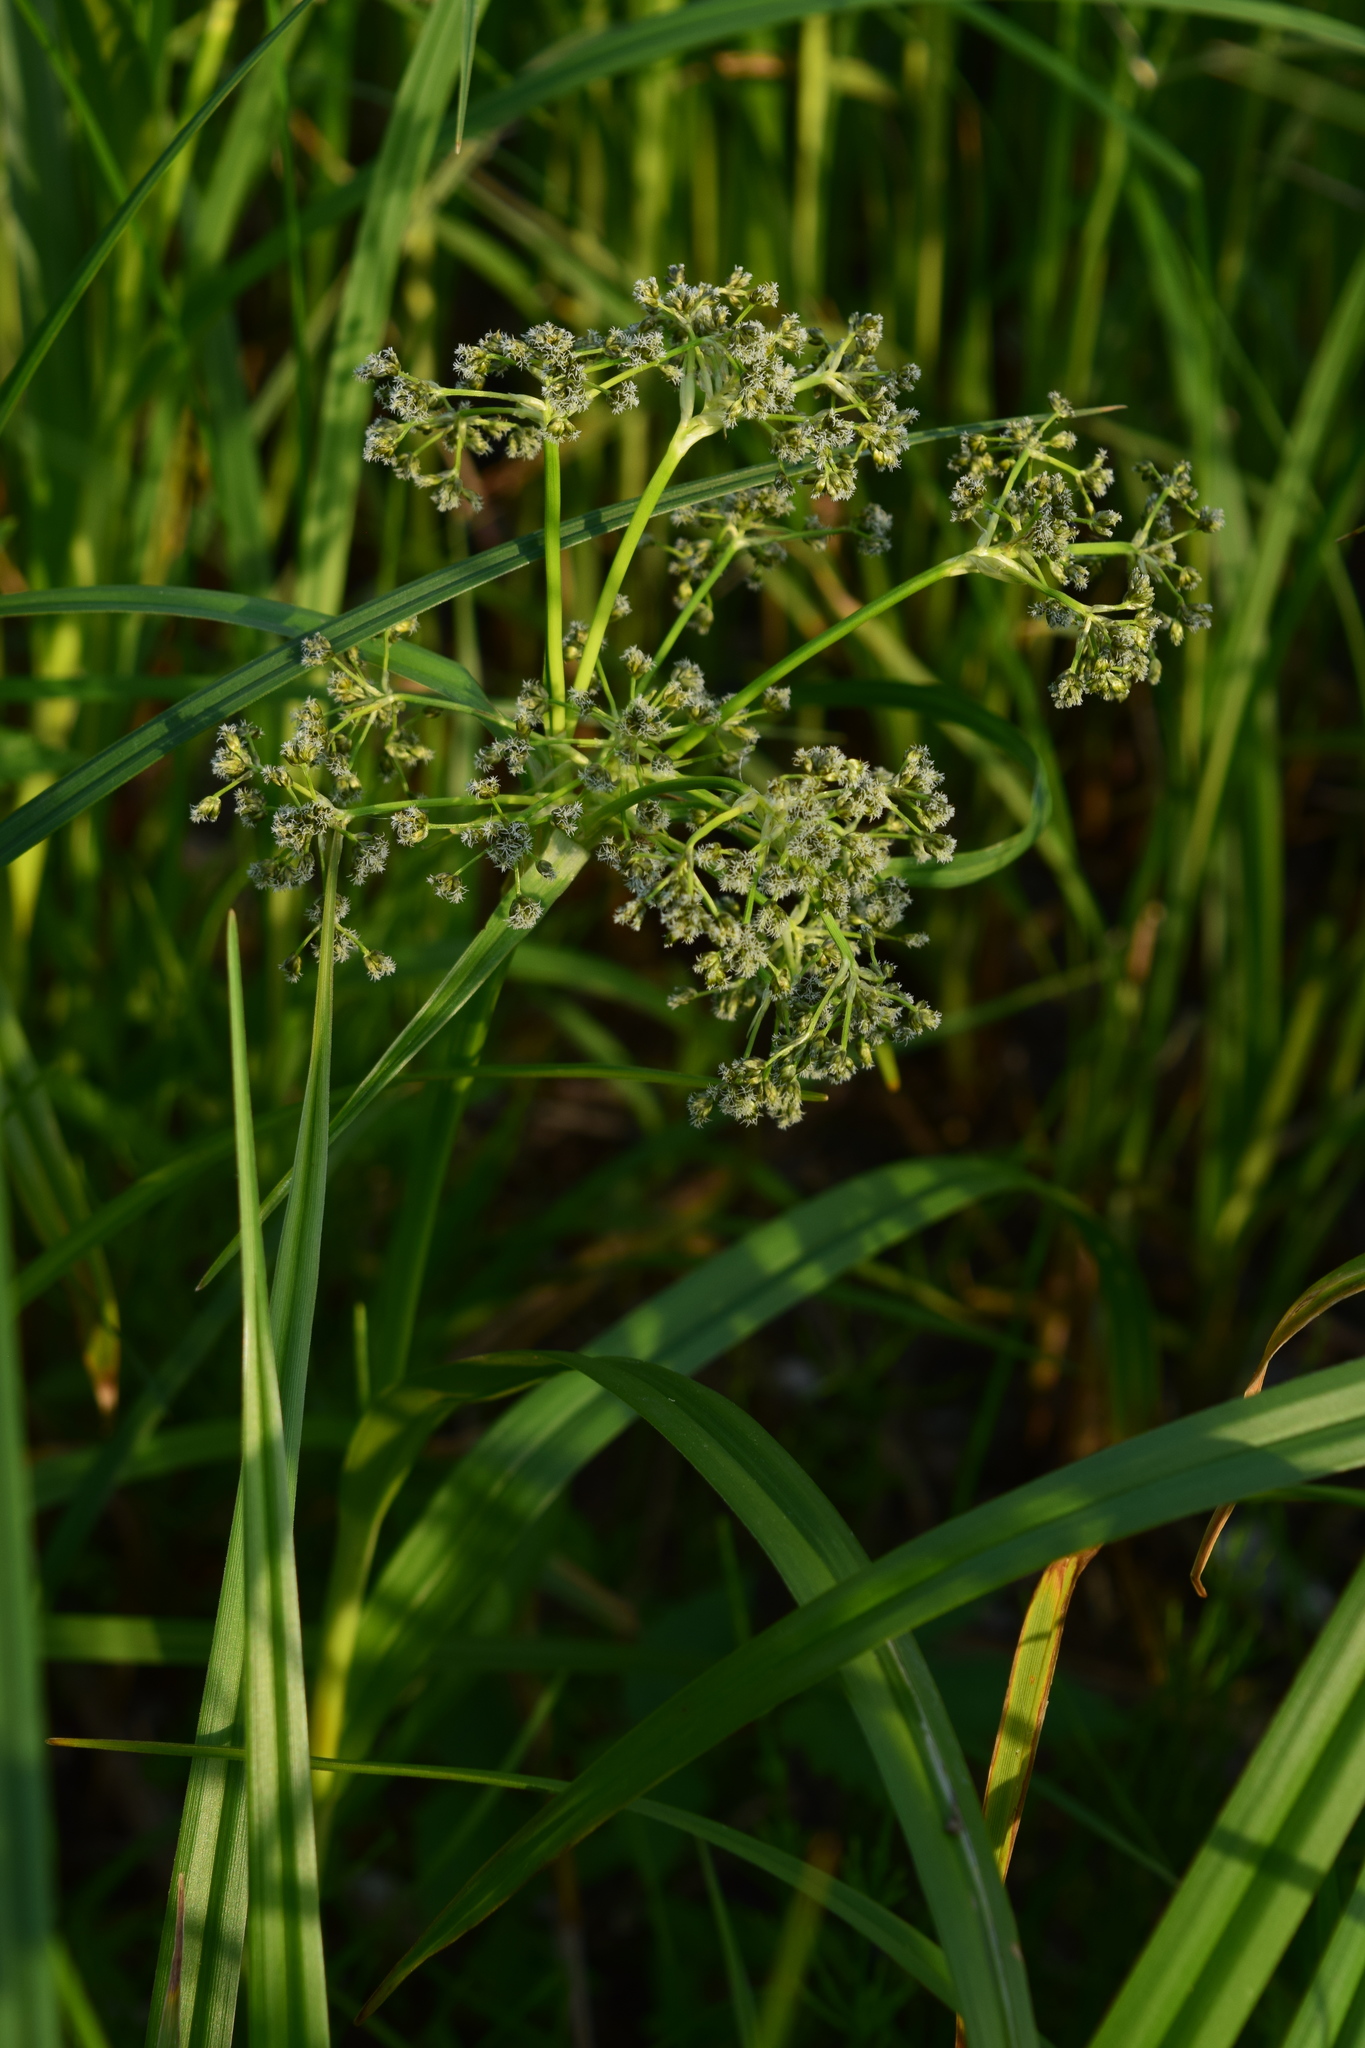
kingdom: Plantae
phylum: Tracheophyta
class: Liliopsida
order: Poales
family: Cyperaceae
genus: Scirpus
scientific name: Scirpus sylvaticus
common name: Wood club-rush
